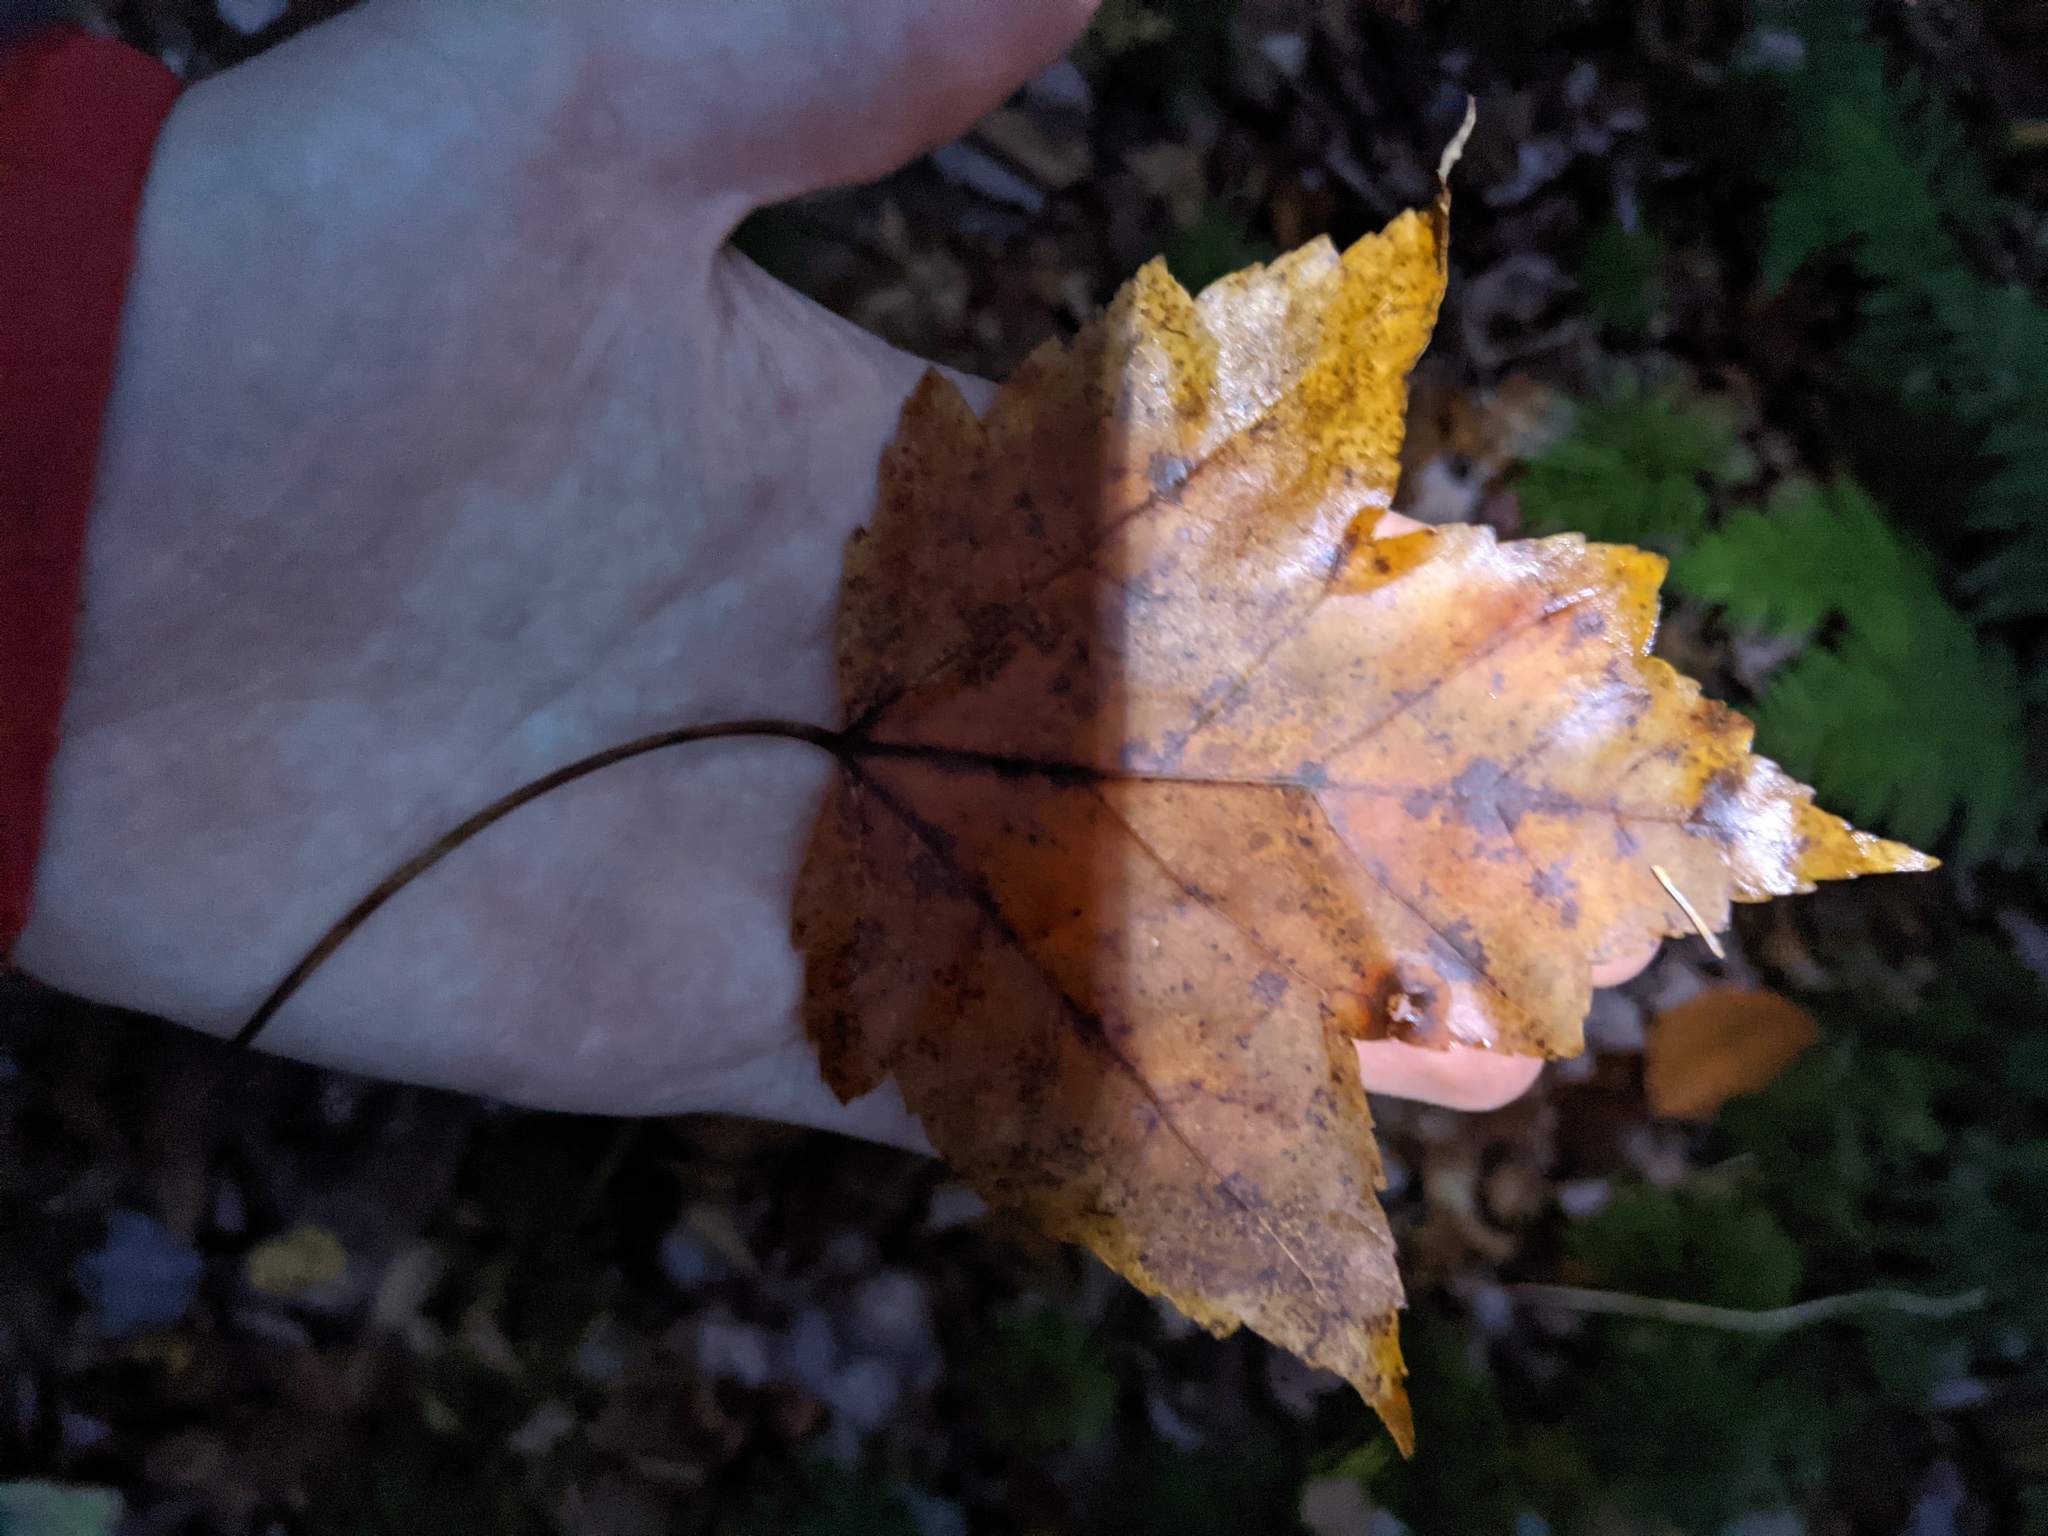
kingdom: Plantae
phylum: Tracheophyta
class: Magnoliopsida
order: Sapindales
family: Sapindaceae
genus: Acer
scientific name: Acer rubrum
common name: Red maple
